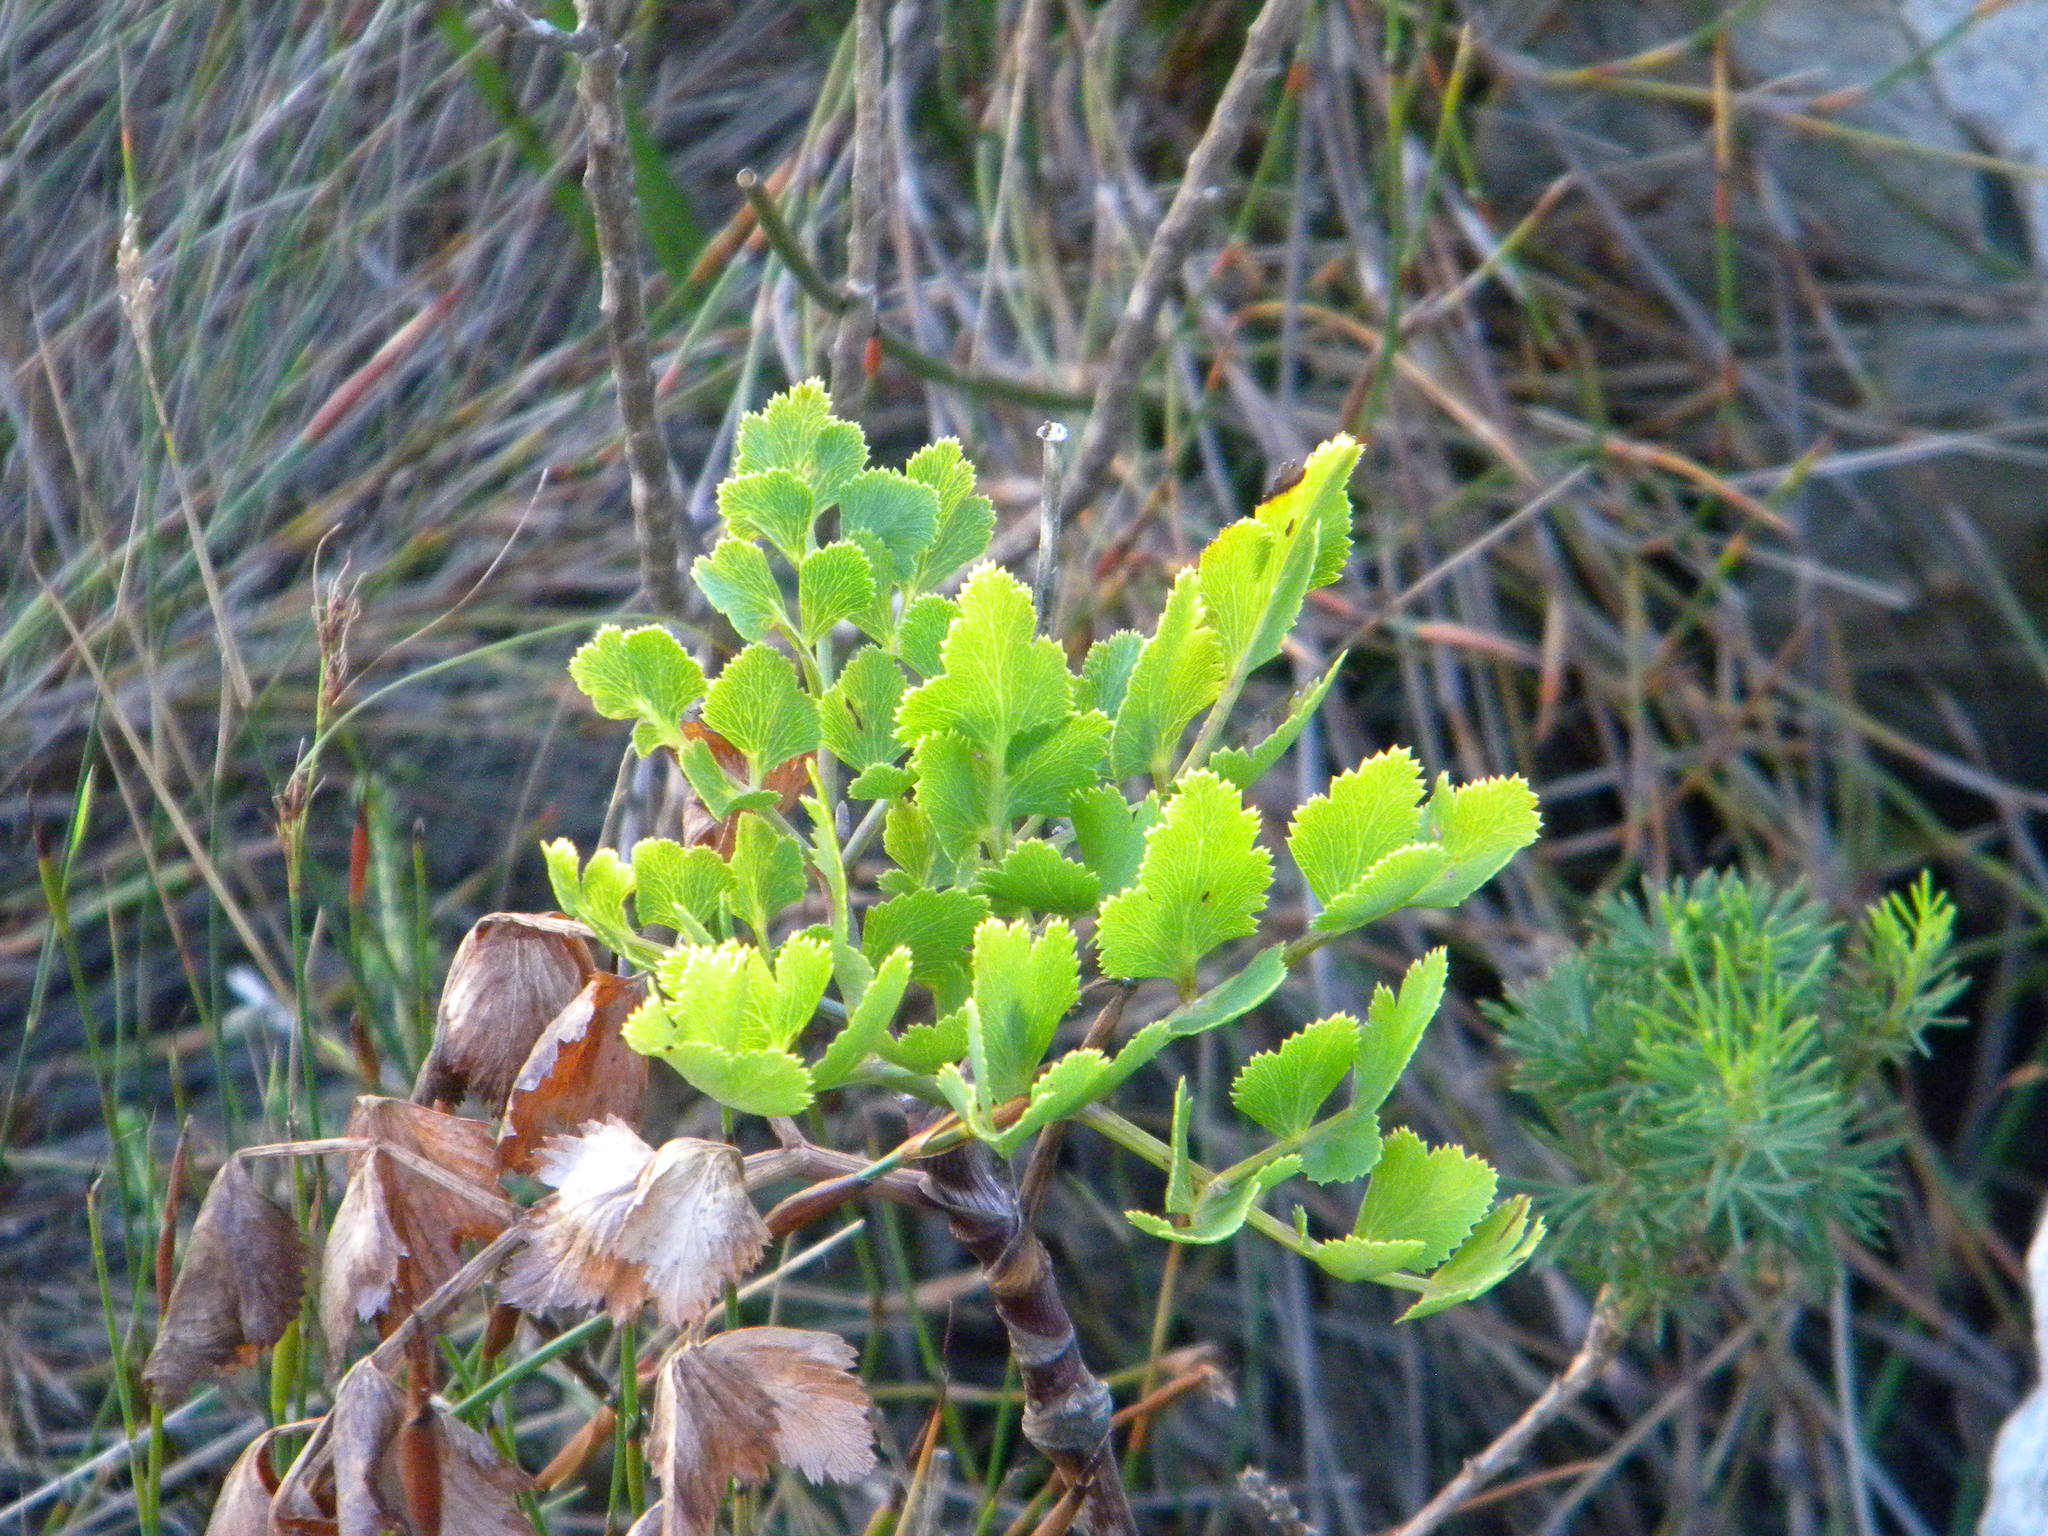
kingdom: Plantae
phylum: Tracheophyta
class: Magnoliopsida
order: Apiales
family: Apiaceae
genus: Notobubon
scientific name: Notobubon galbanum
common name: Blisterbush
